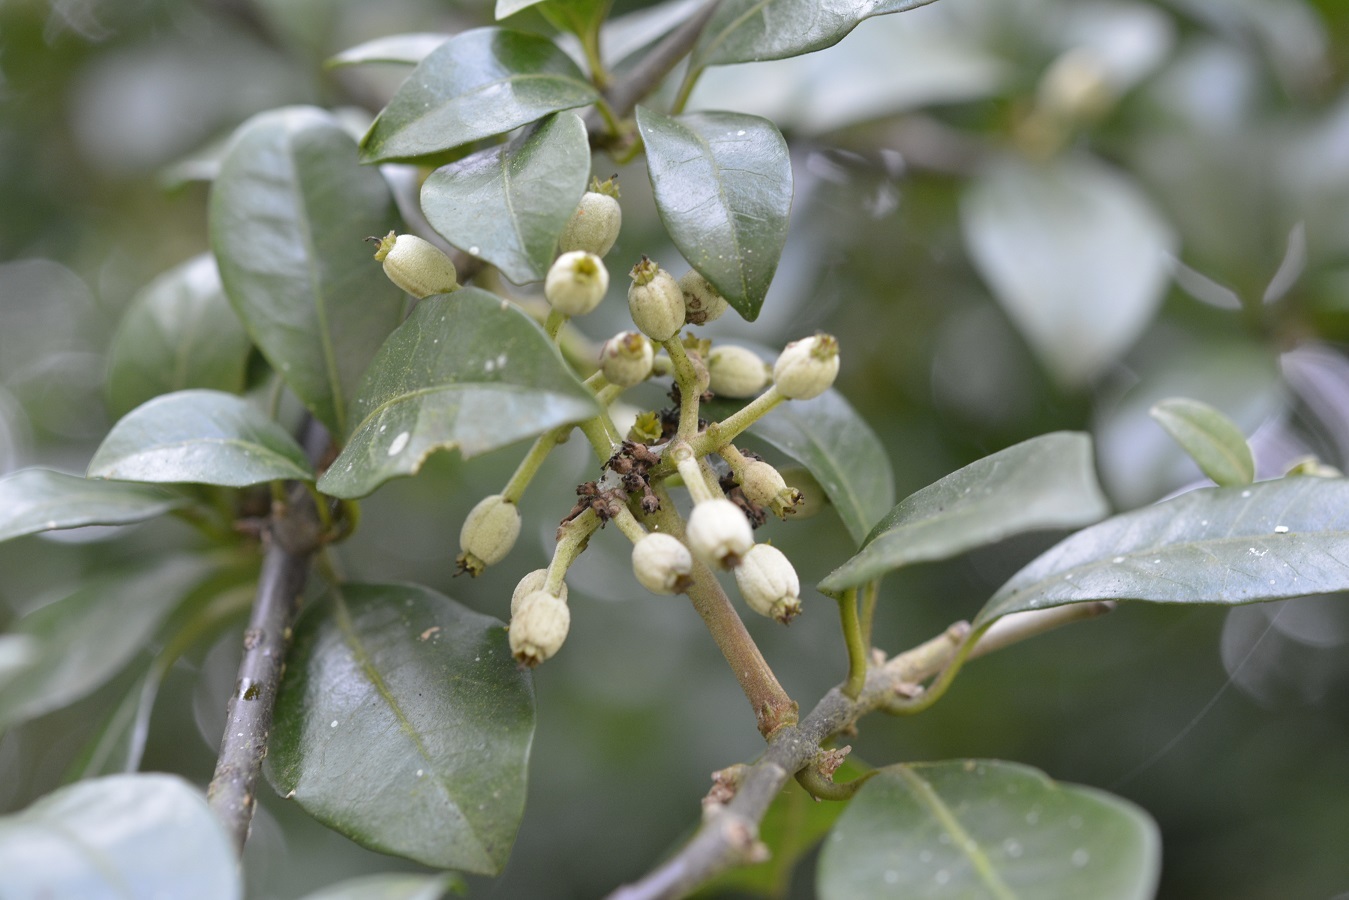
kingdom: Plantae
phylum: Tracheophyta
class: Magnoliopsida
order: Caryophyllales
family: Nyctaginaceae
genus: Pisonia
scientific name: Pisonia donnellsmithii
